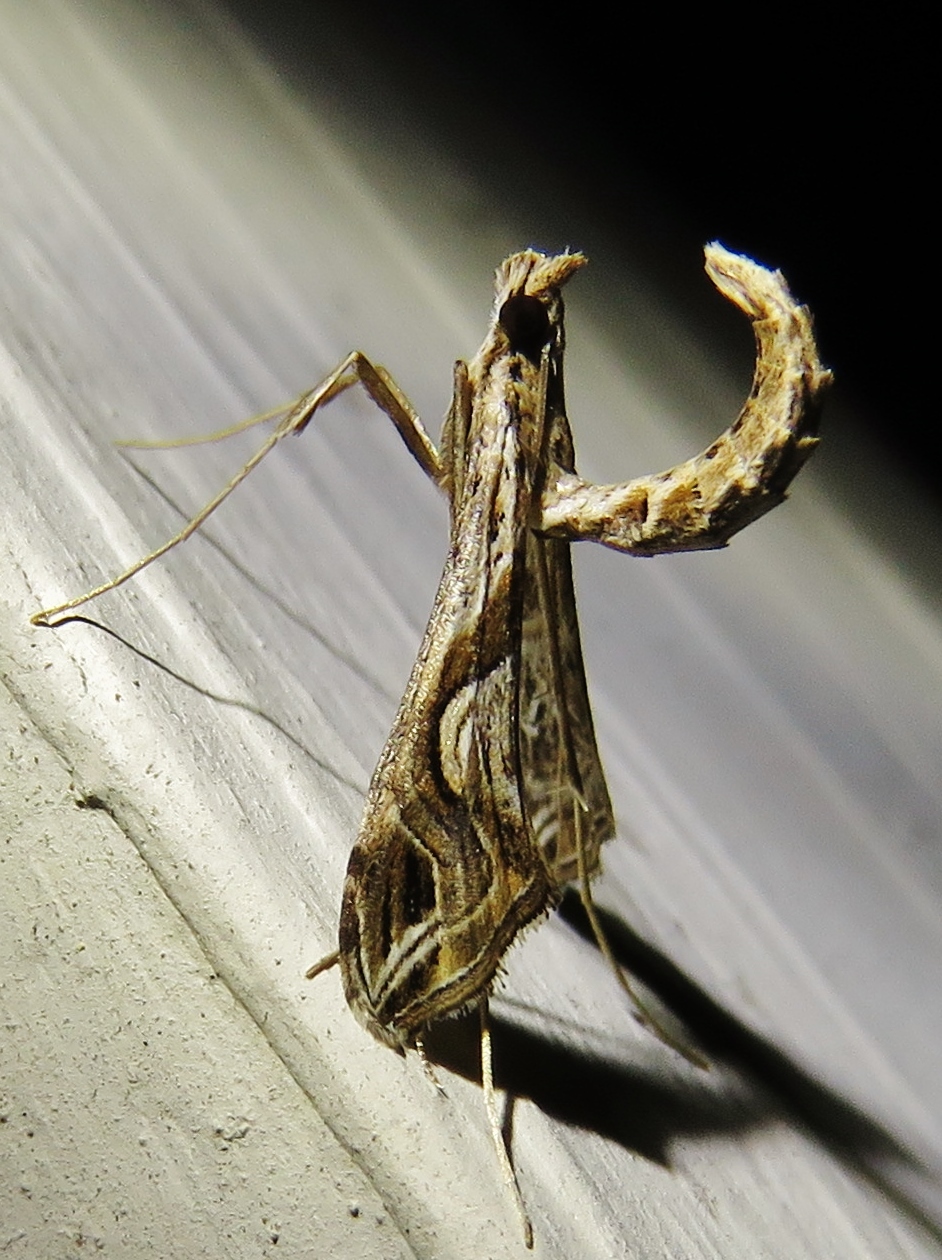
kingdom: Animalia
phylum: Arthropoda
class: Insecta
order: Lepidoptera
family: Crambidae
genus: Lineodes
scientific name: Lineodes integra
